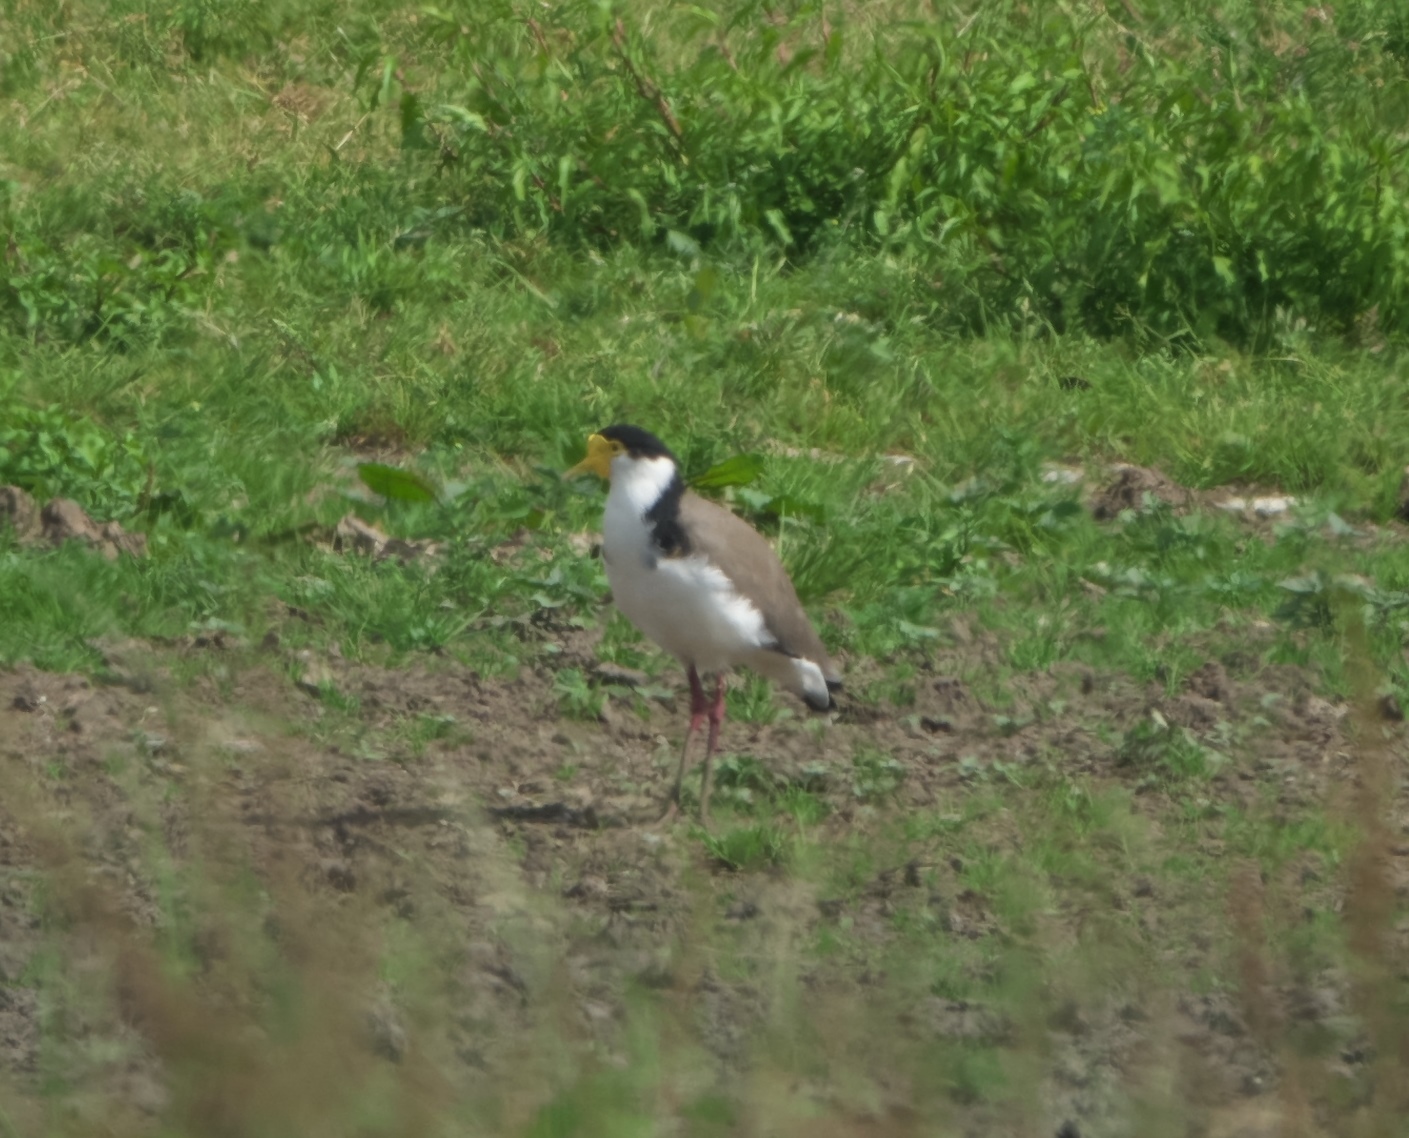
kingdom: Animalia
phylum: Chordata
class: Aves
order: Charadriiformes
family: Charadriidae
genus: Vanellus
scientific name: Vanellus miles
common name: Masked lapwing
